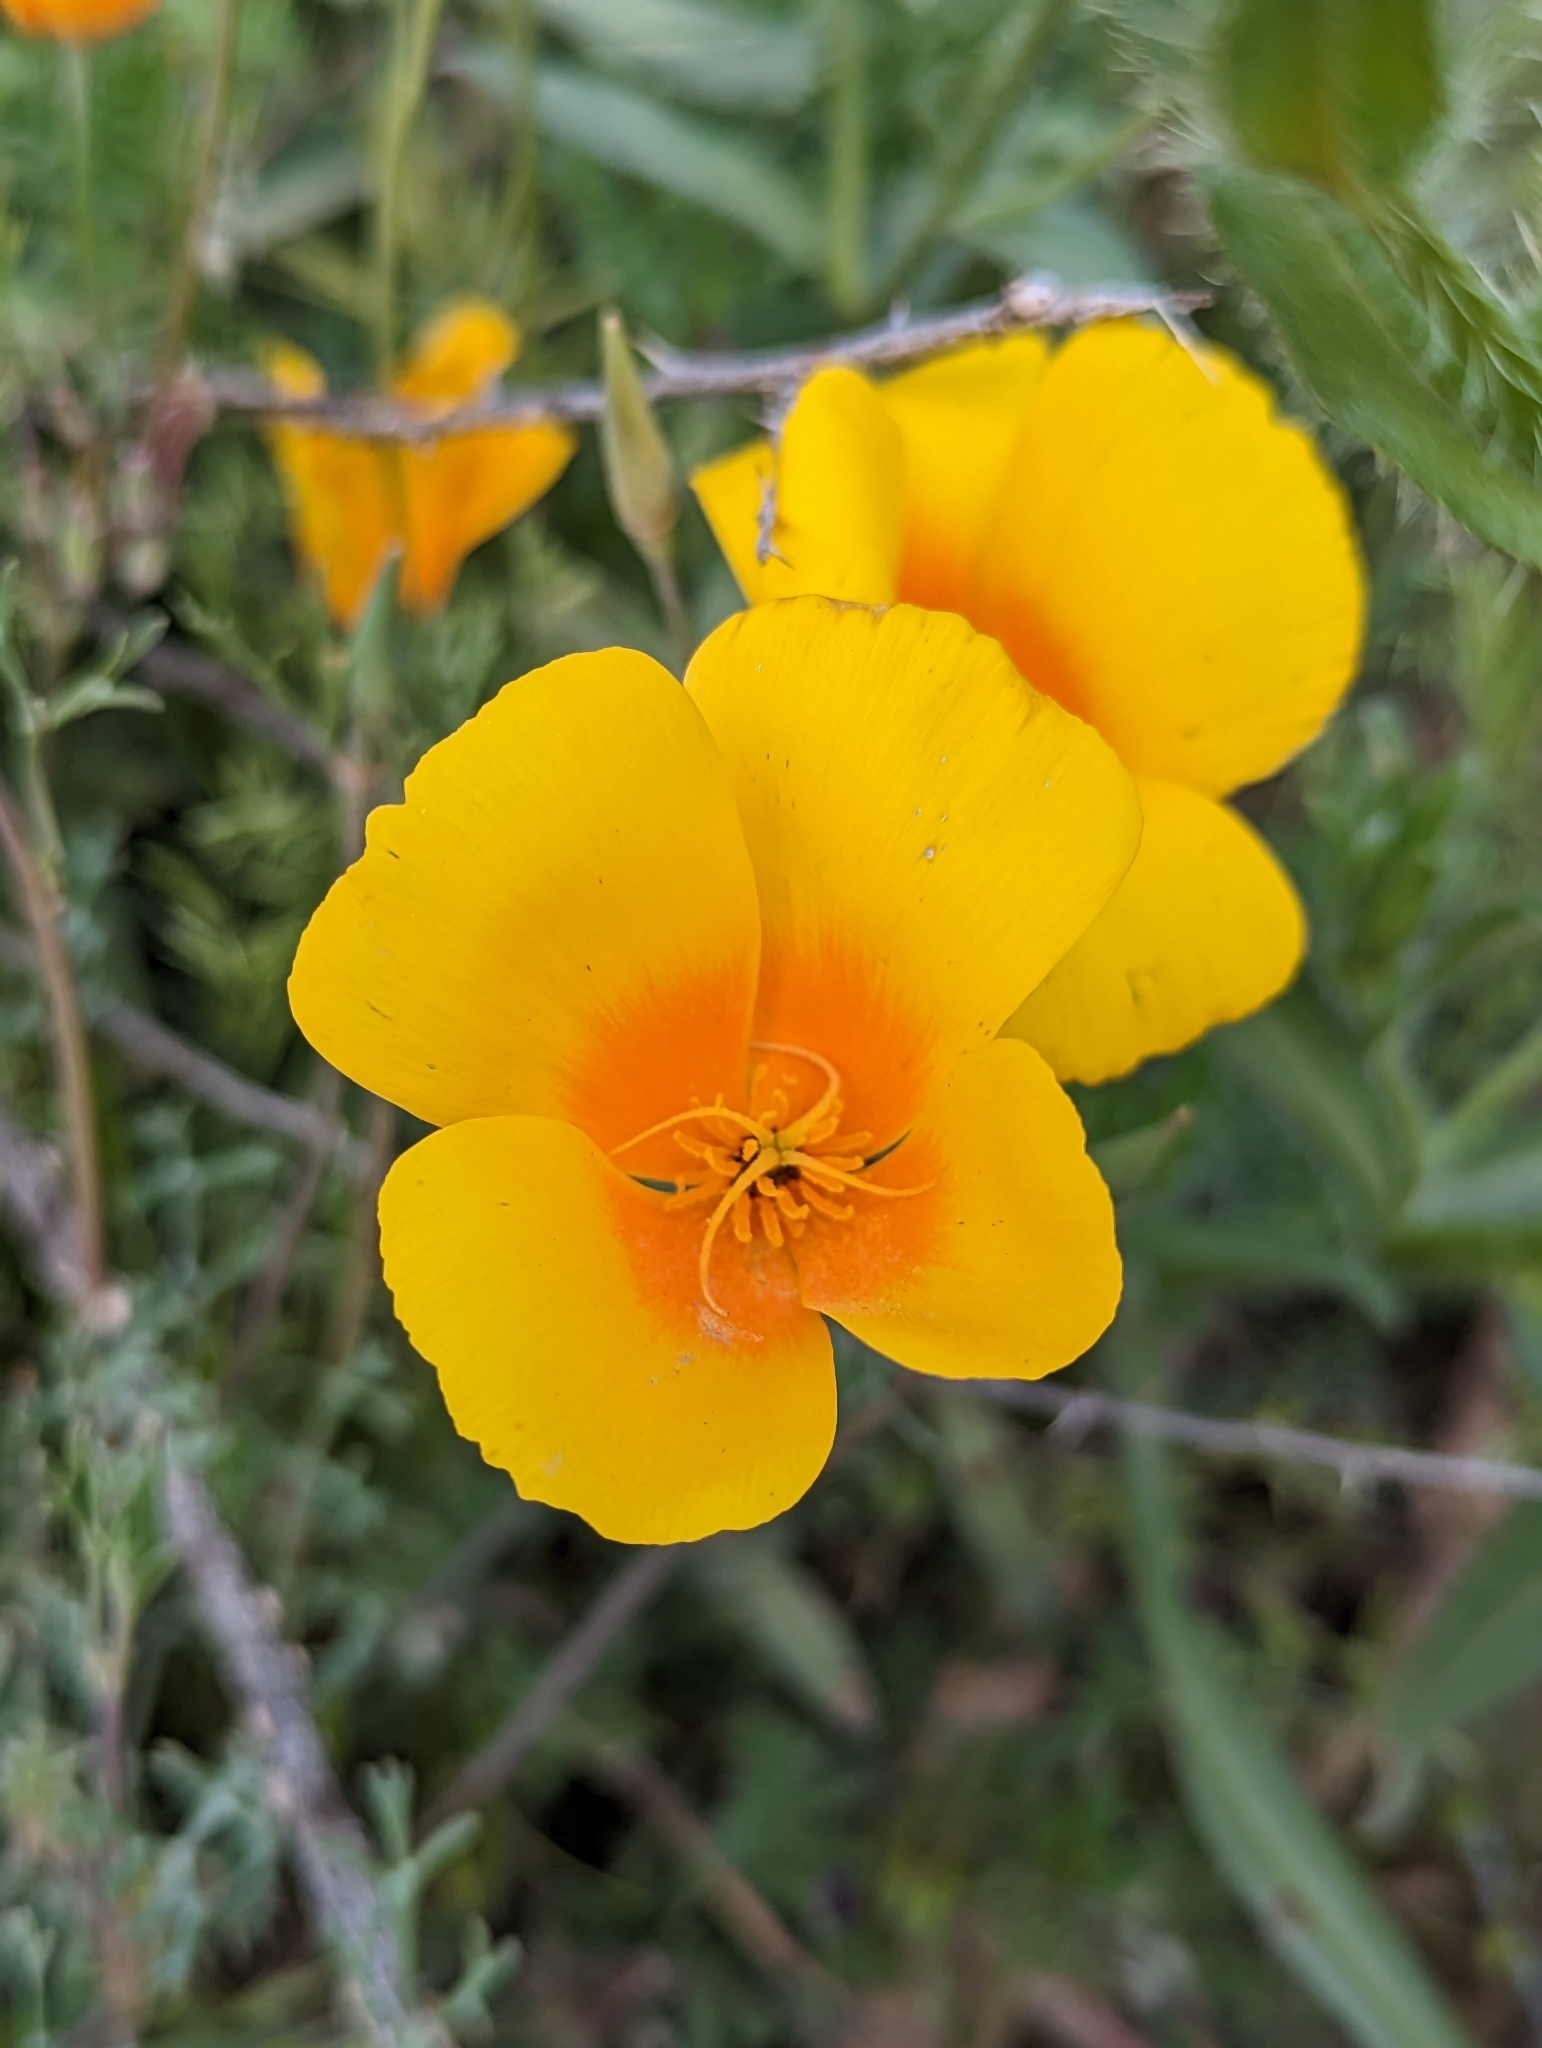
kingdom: Plantae
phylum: Tracheophyta
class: Magnoliopsida
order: Ranunculales
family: Papaveraceae
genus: Eschscholzia
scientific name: Eschscholzia californica
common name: California poppy
